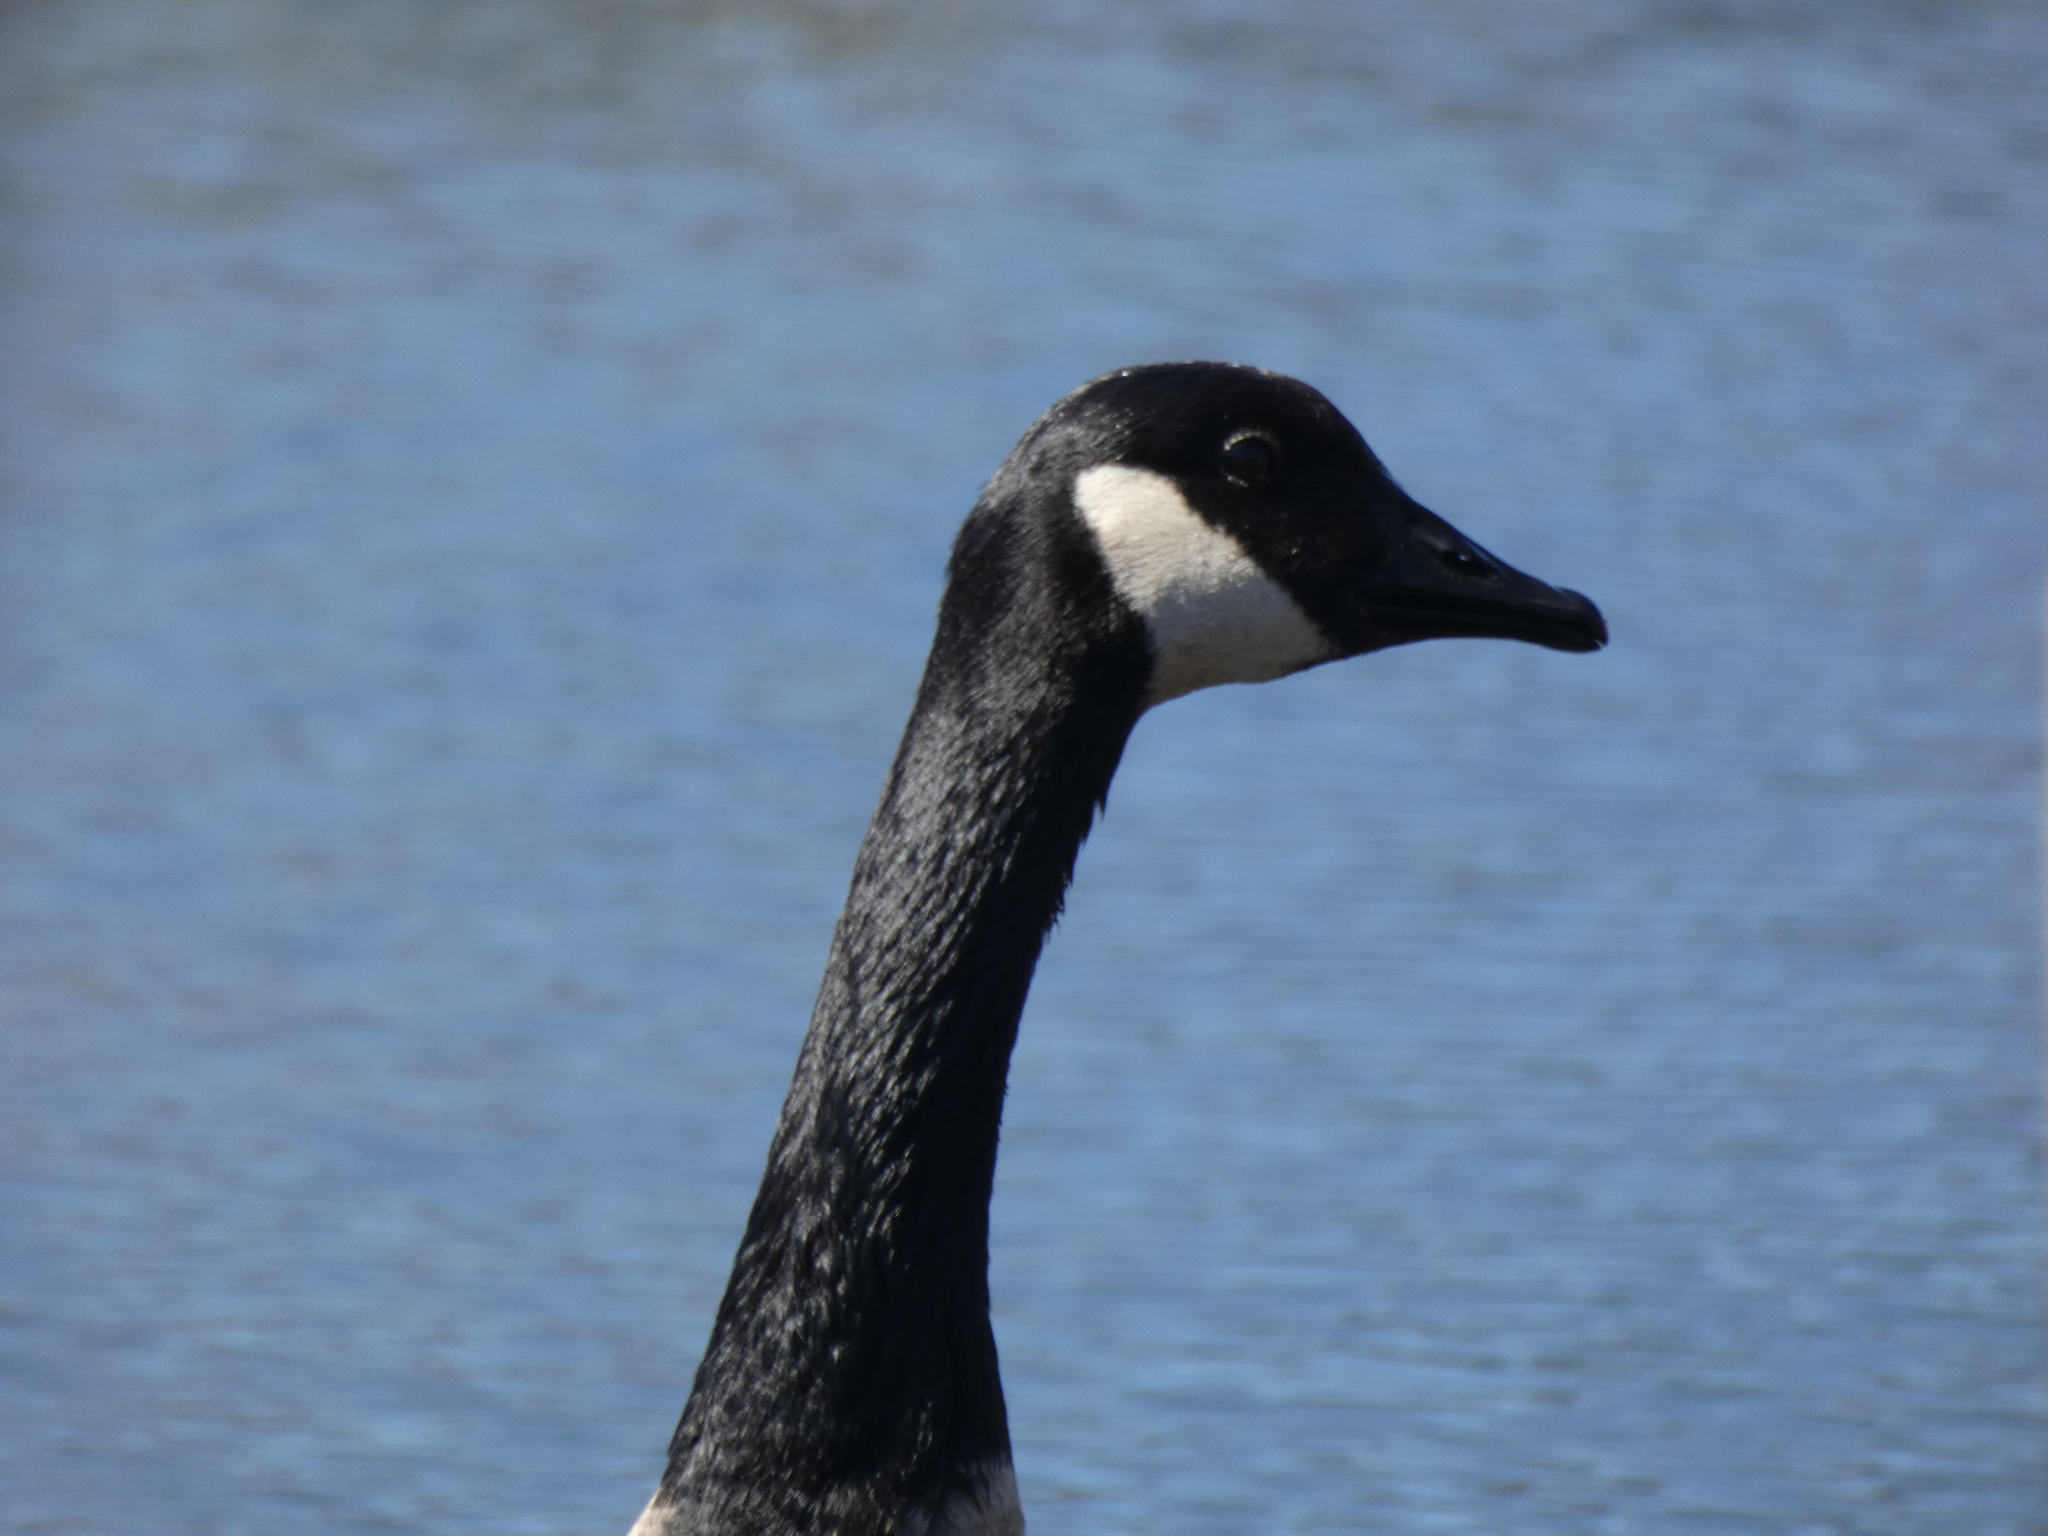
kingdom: Animalia
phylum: Chordata
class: Aves
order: Anseriformes
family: Anatidae
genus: Branta
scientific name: Branta canadensis
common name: Canada goose
